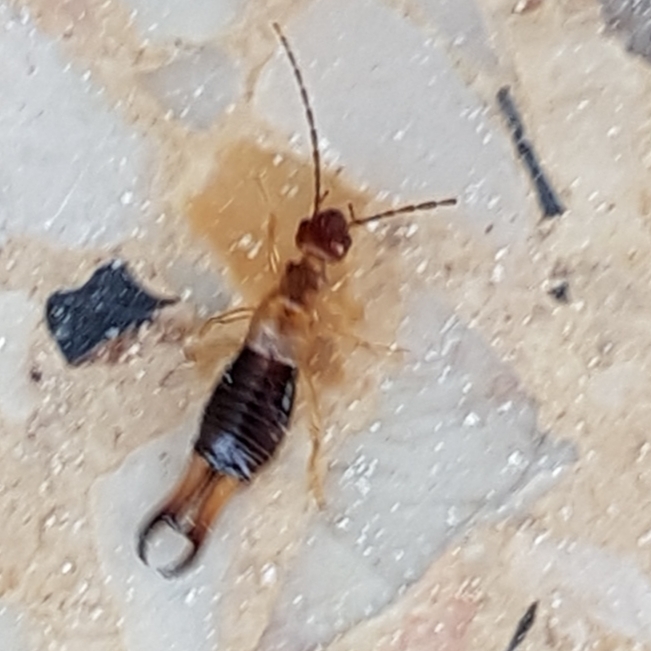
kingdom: Animalia
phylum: Arthropoda
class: Insecta
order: Dermaptera
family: Forficulidae
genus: Guanchia
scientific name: Guanchia pubescens
